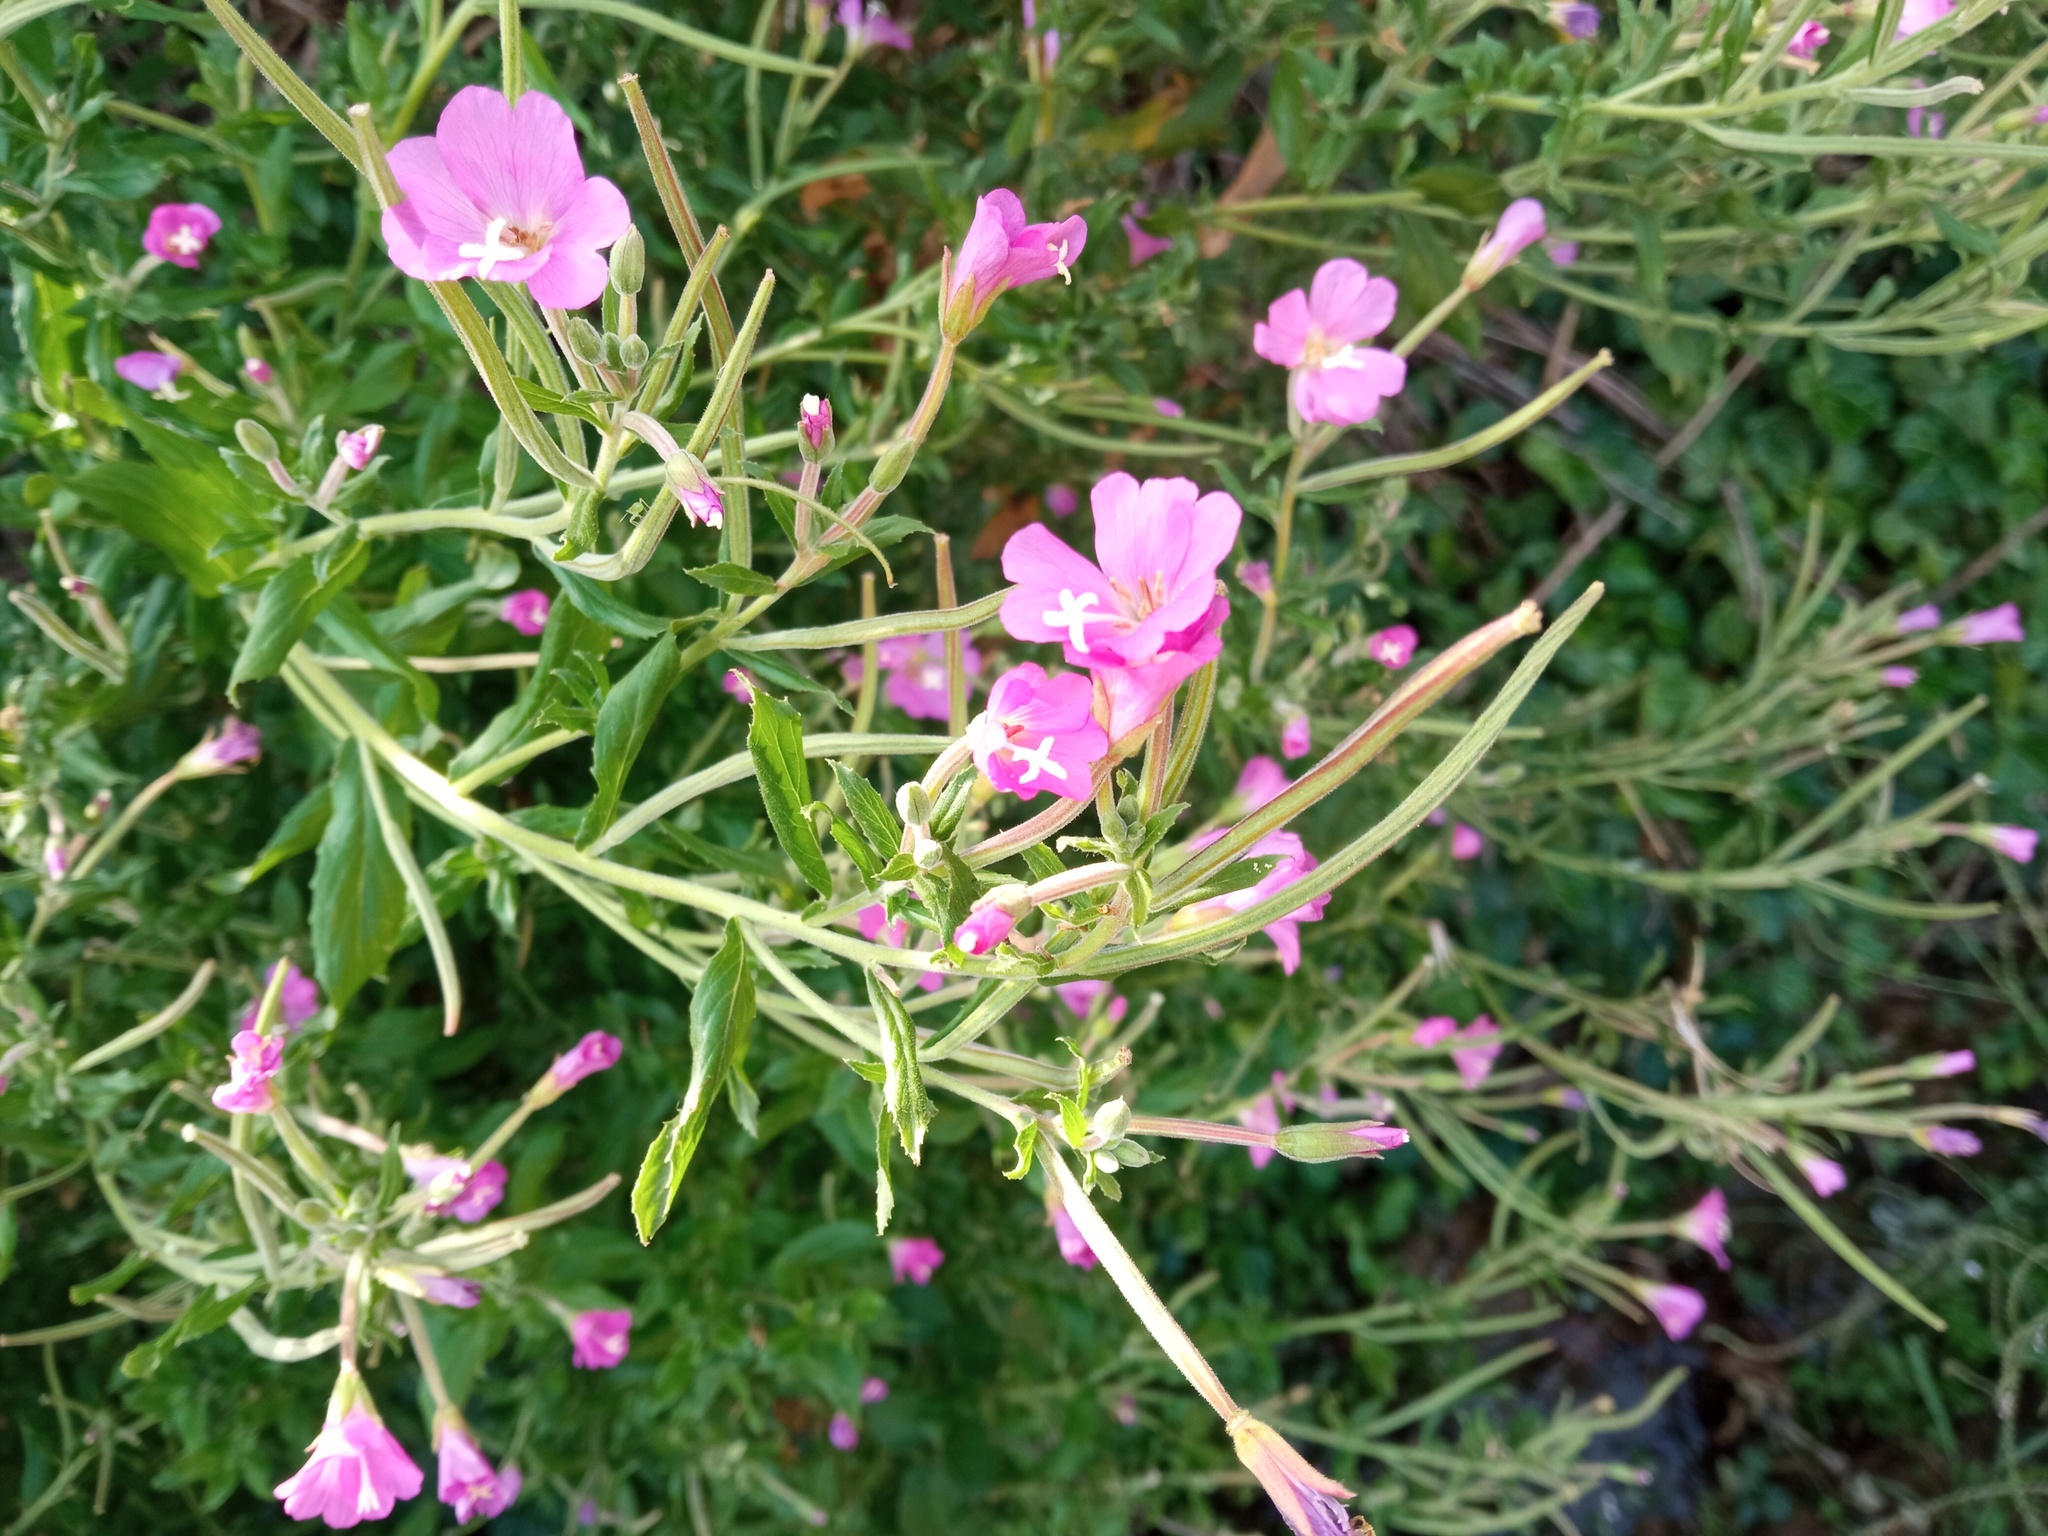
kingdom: Plantae
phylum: Tracheophyta
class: Magnoliopsida
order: Myrtales
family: Onagraceae
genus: Epilobium
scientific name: Epilobium hirsutum
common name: Great willowherb
